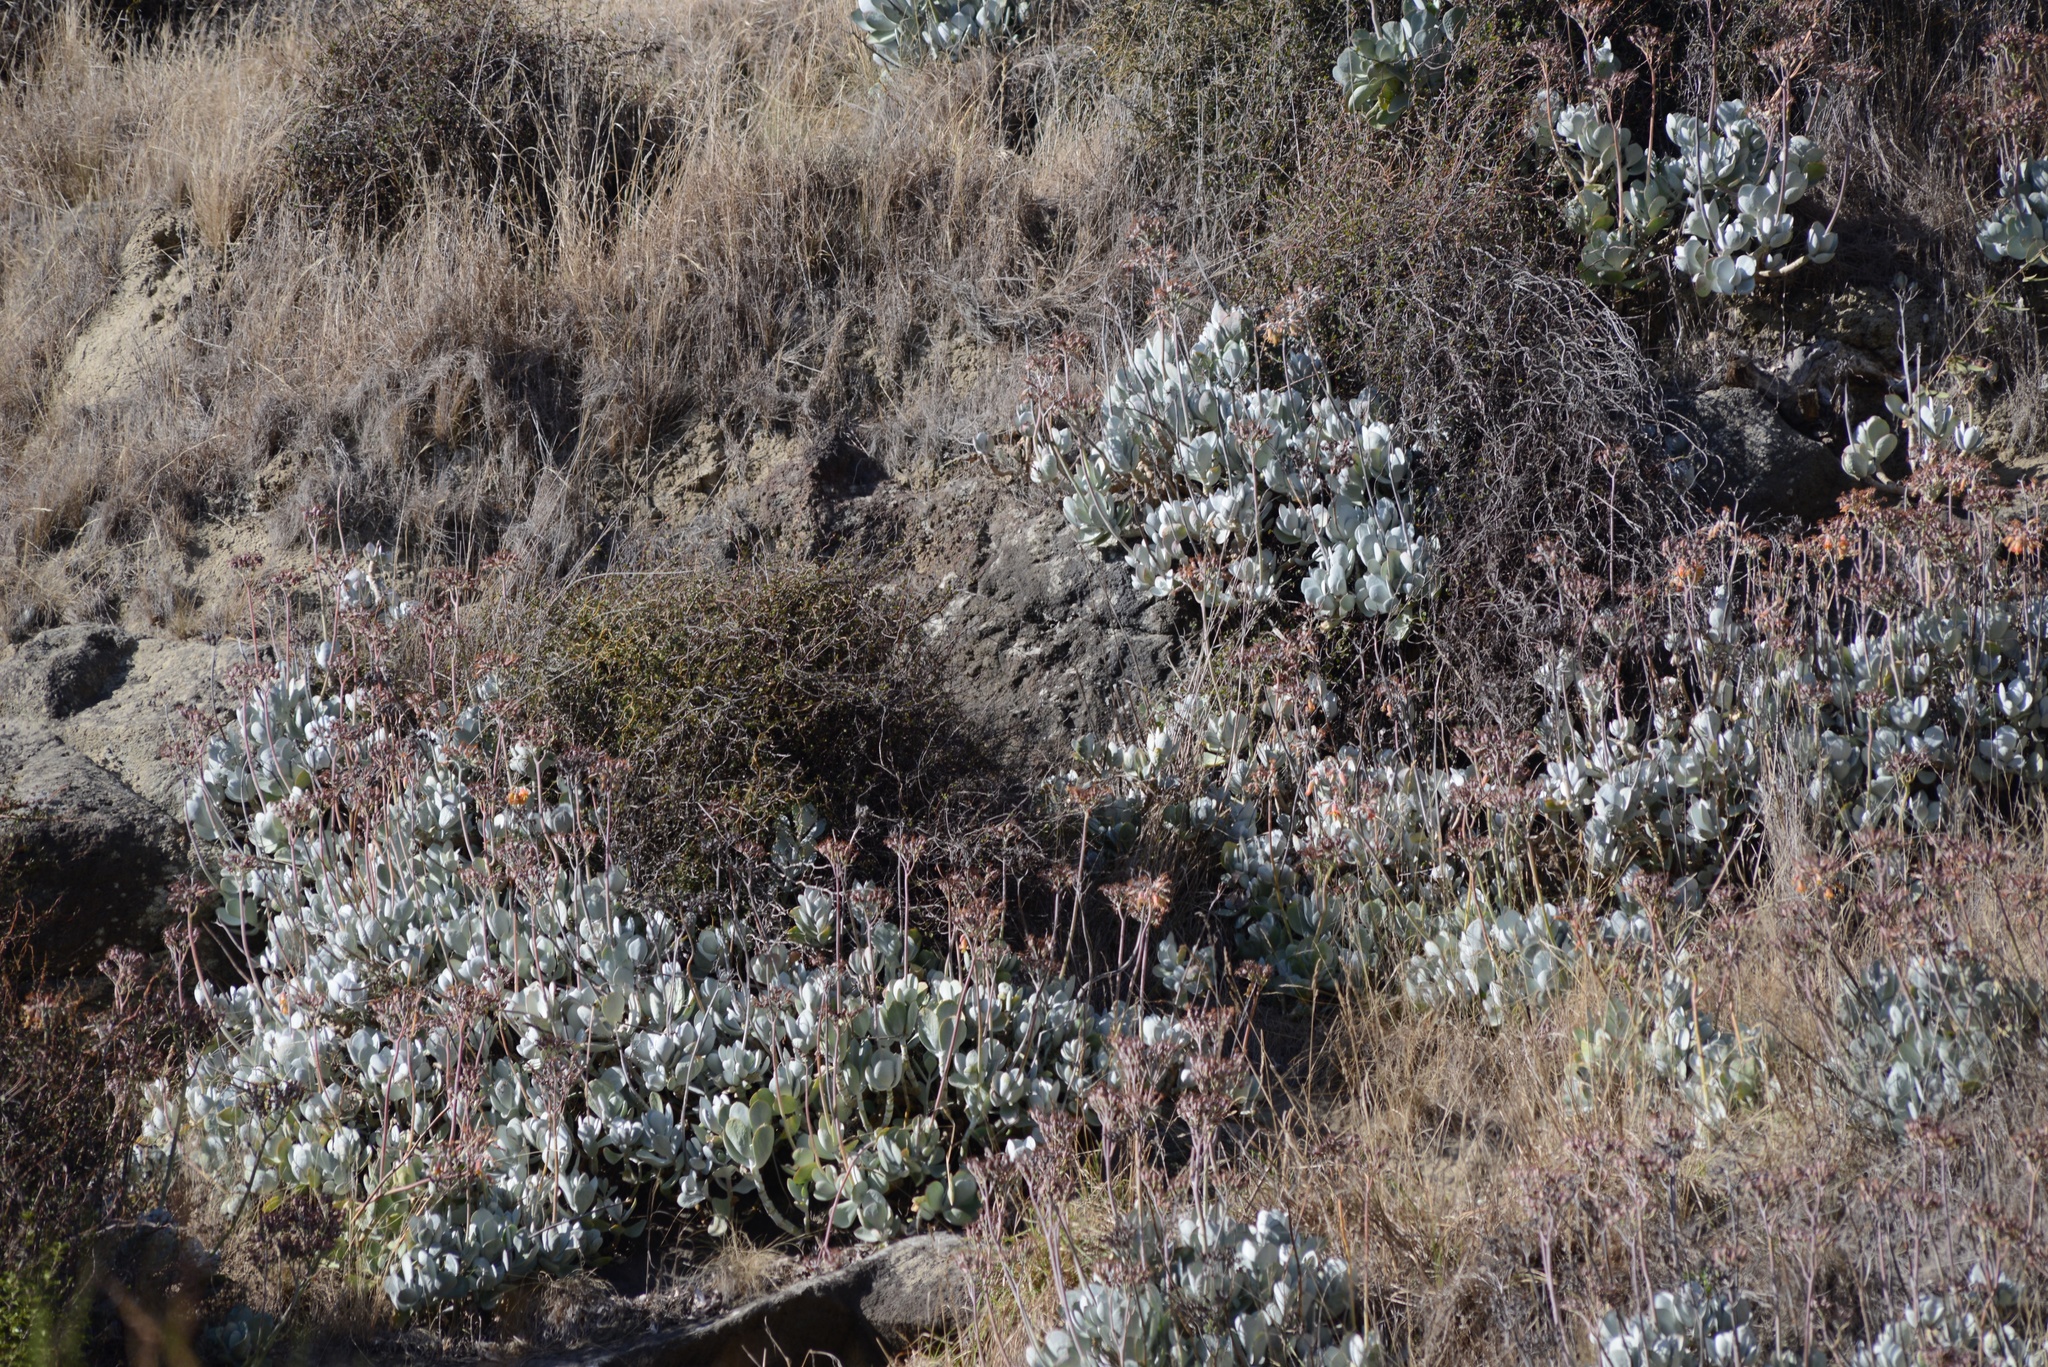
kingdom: Plantae
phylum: Tracheophyta
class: Magnoliopsida
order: Saxifragales
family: Crassulaceae
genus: Cotyledon
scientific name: Cotyledon orbiculata
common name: Pig's ear
